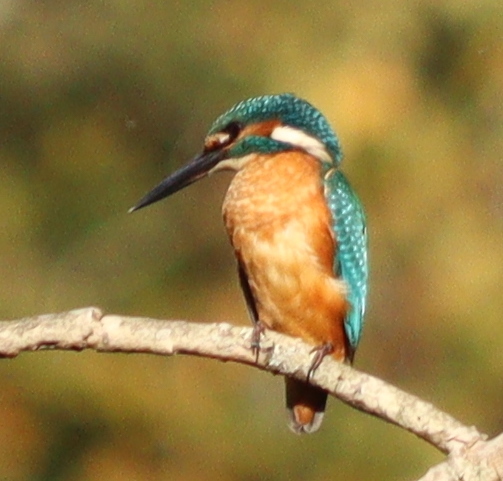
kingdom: Animalia
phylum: Chordata
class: Aves
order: Coraciiformes
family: Alcedinidae
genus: Alcedo
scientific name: Alcedo atthis
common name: Common kingfisher
